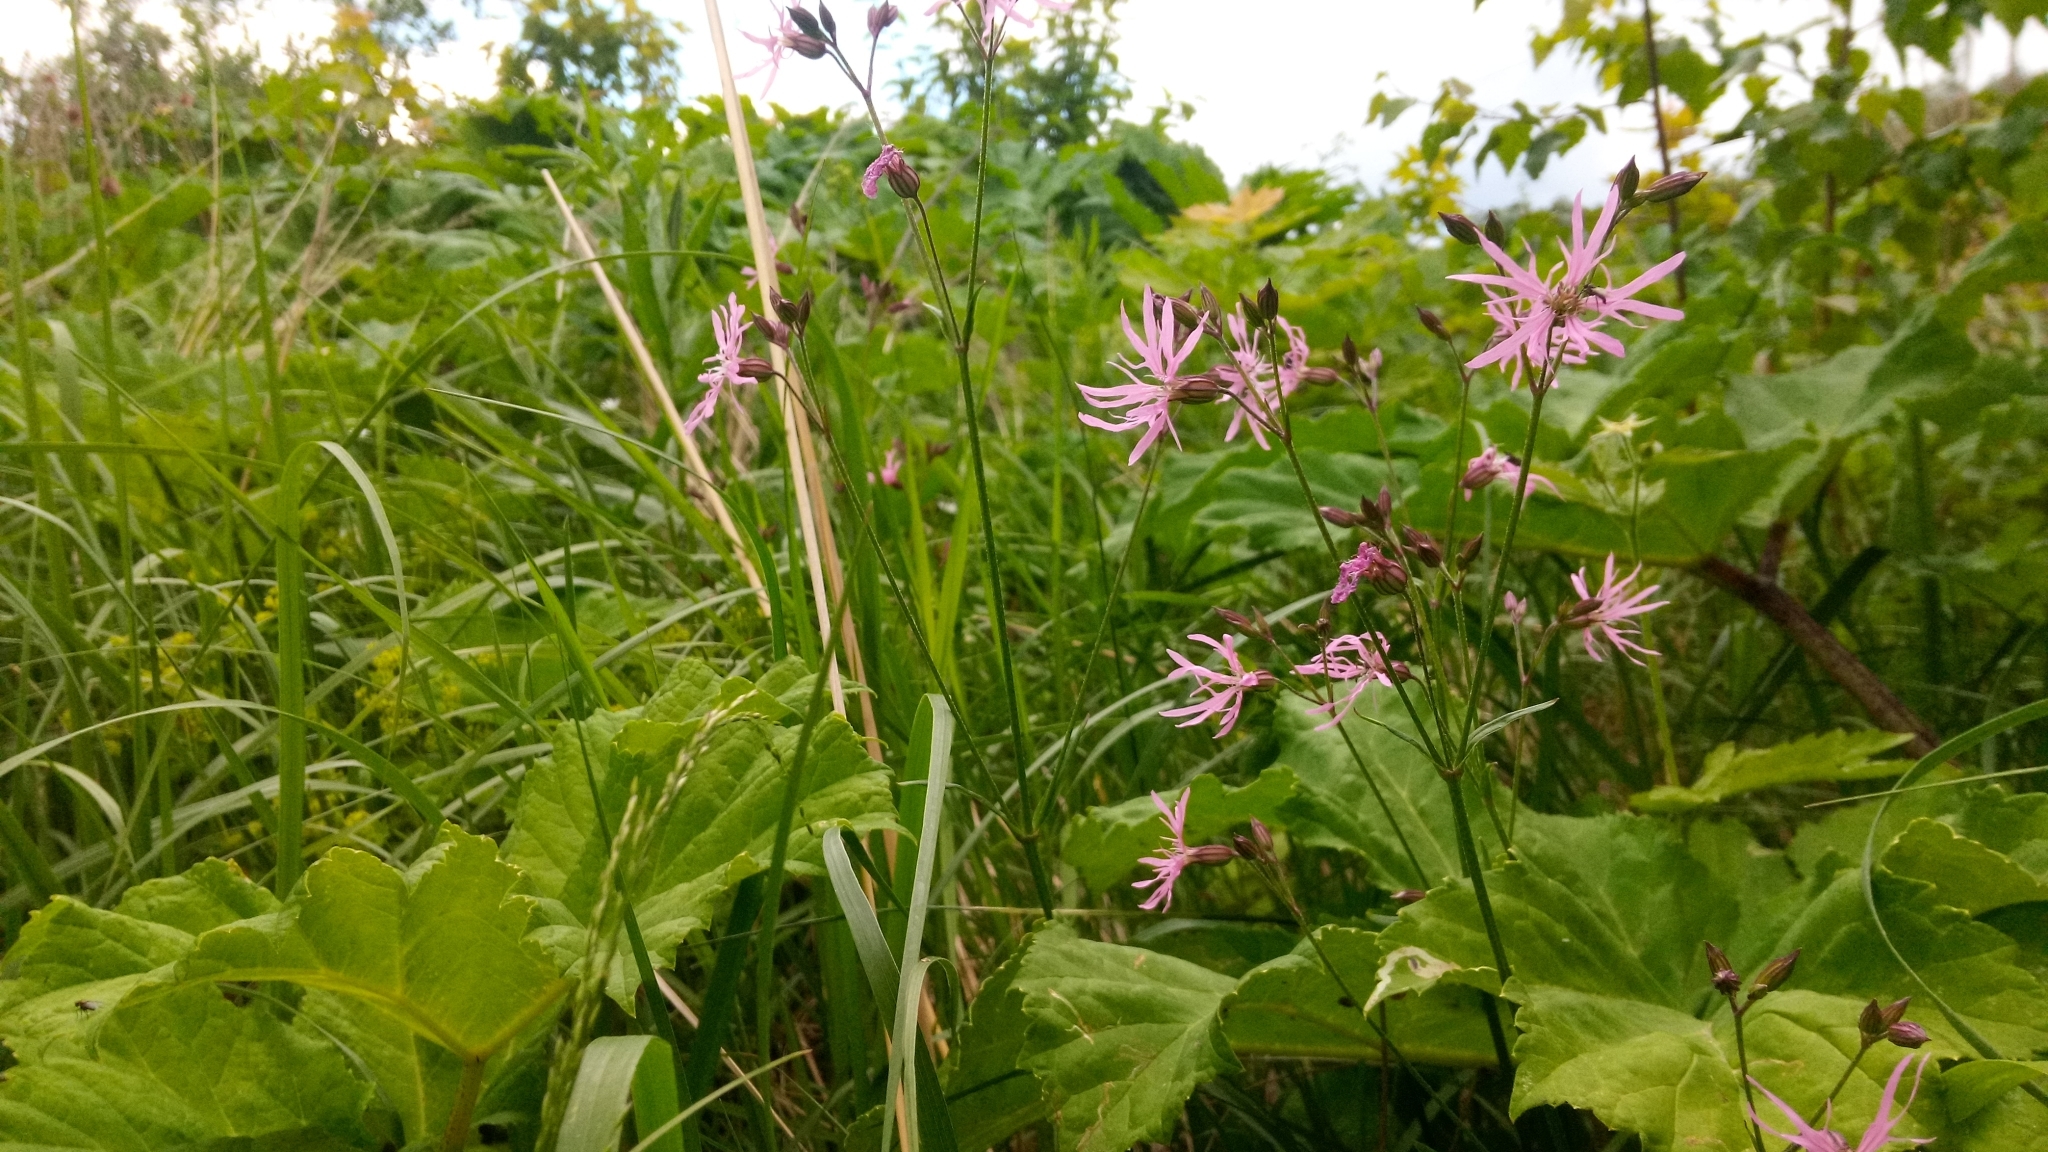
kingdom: Plantae
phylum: Tracheophyta
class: Magnoliopsida
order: Caryophyllales
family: Caryophyllaceae
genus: Silene
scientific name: Silene flos-cuculi
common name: Ragged-robin
